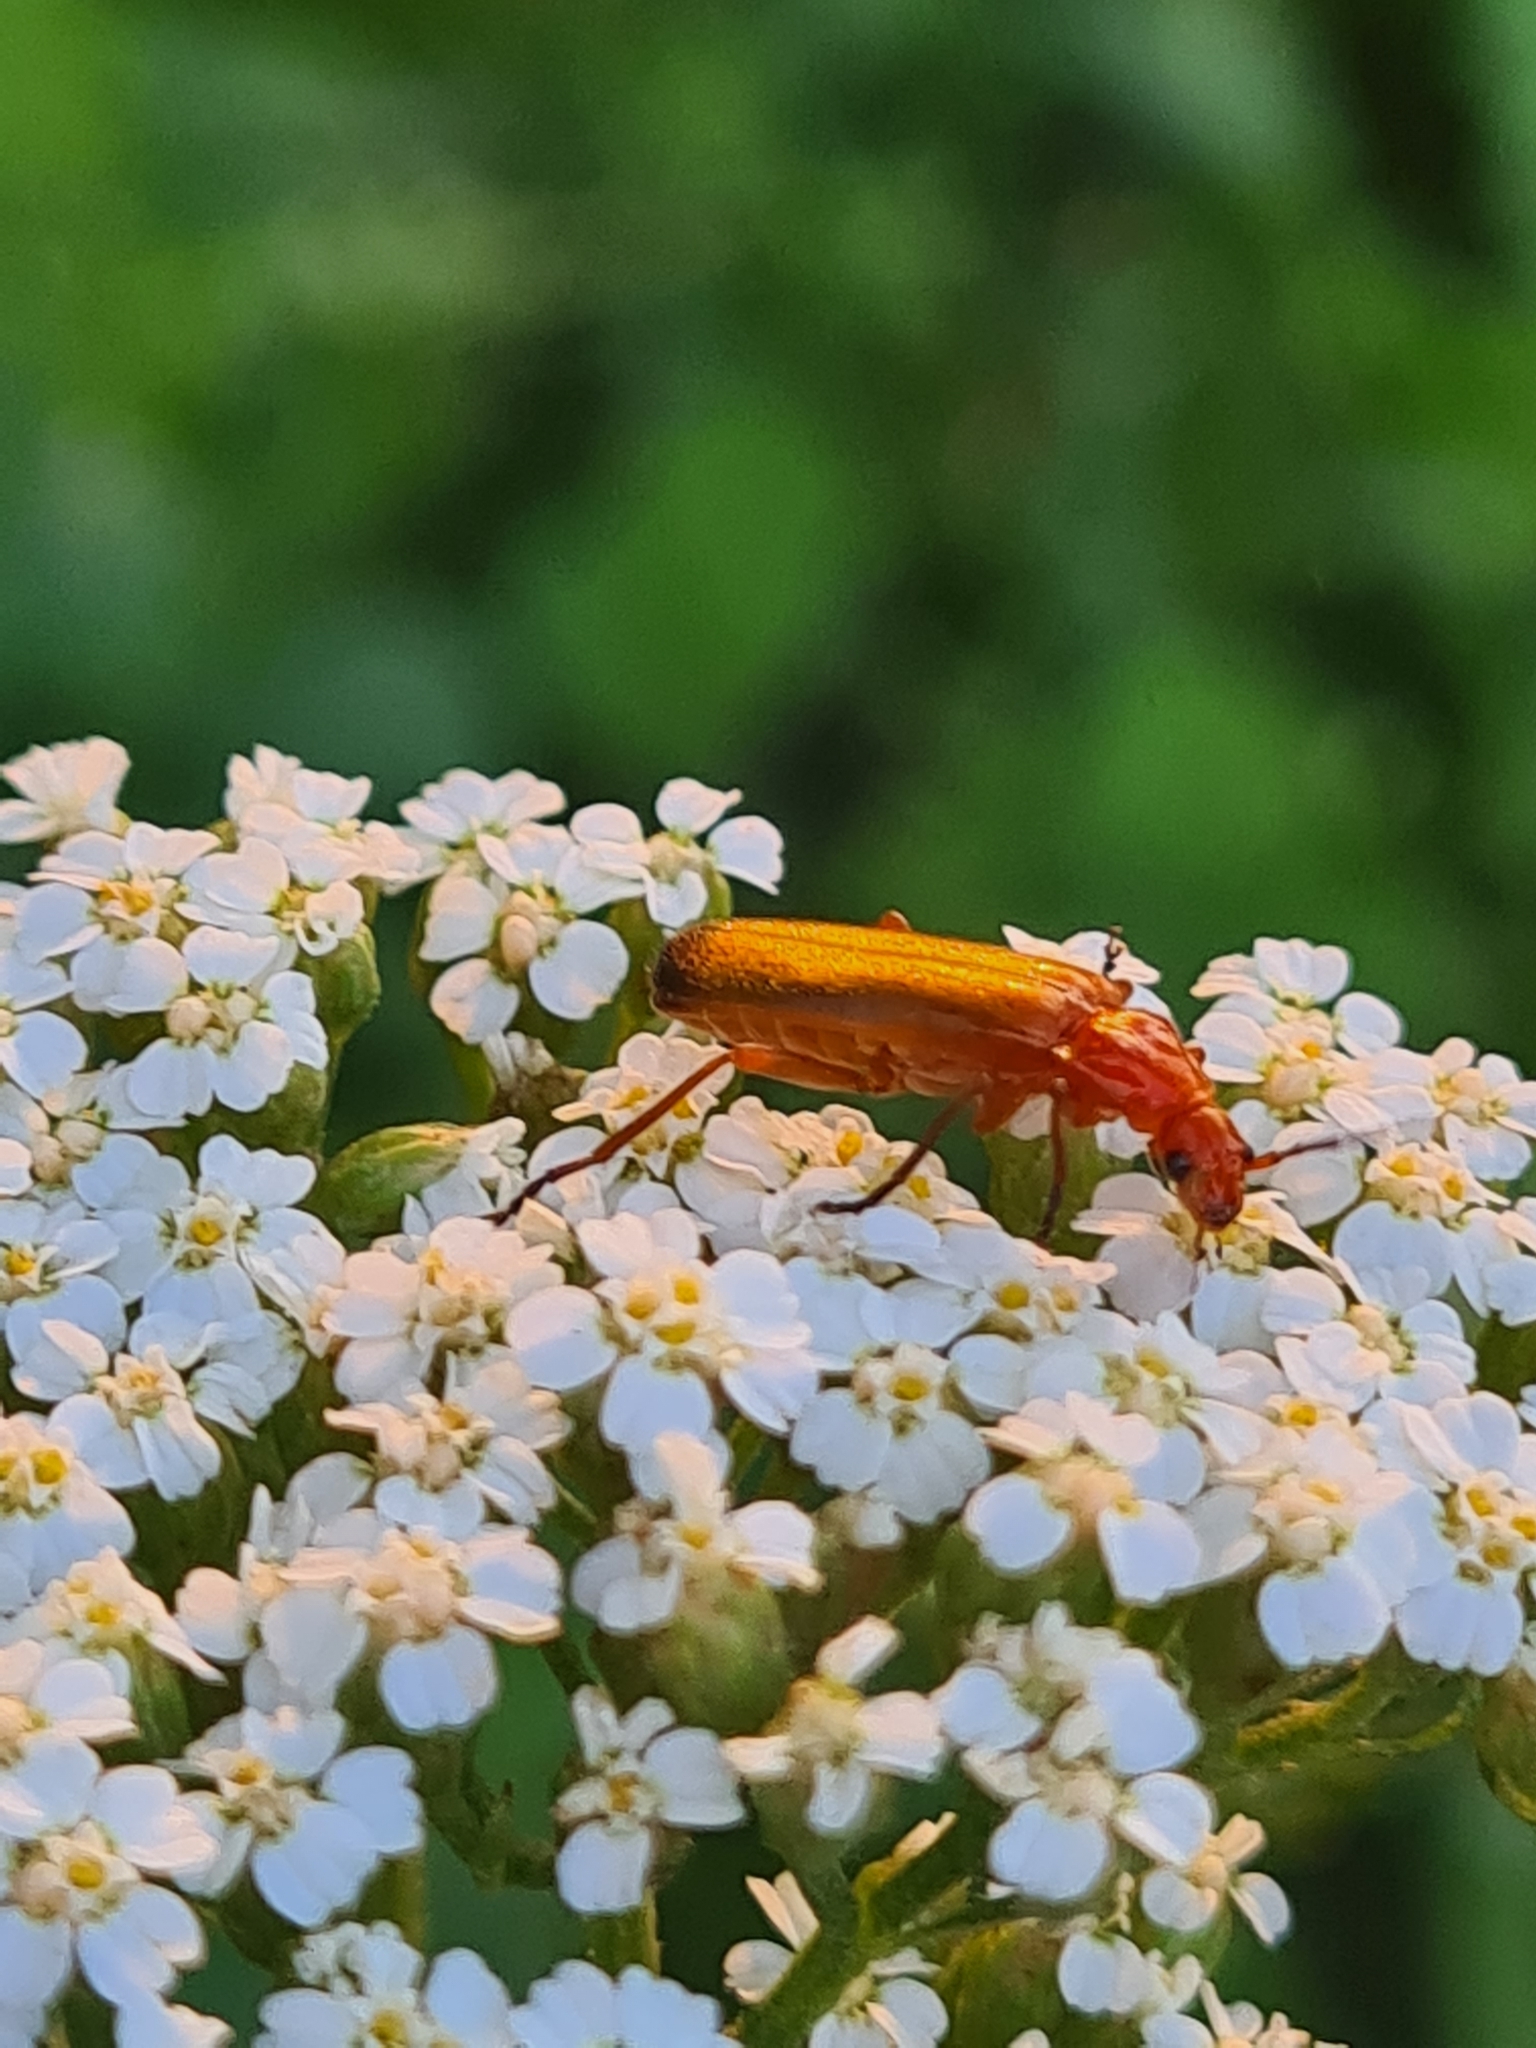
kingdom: Animalia
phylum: Arthropoda
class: Insecta
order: Coleoptera
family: Cantharidae
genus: Rhagonycha
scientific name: Rhagonycha fulva
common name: Common red soldier beetle
